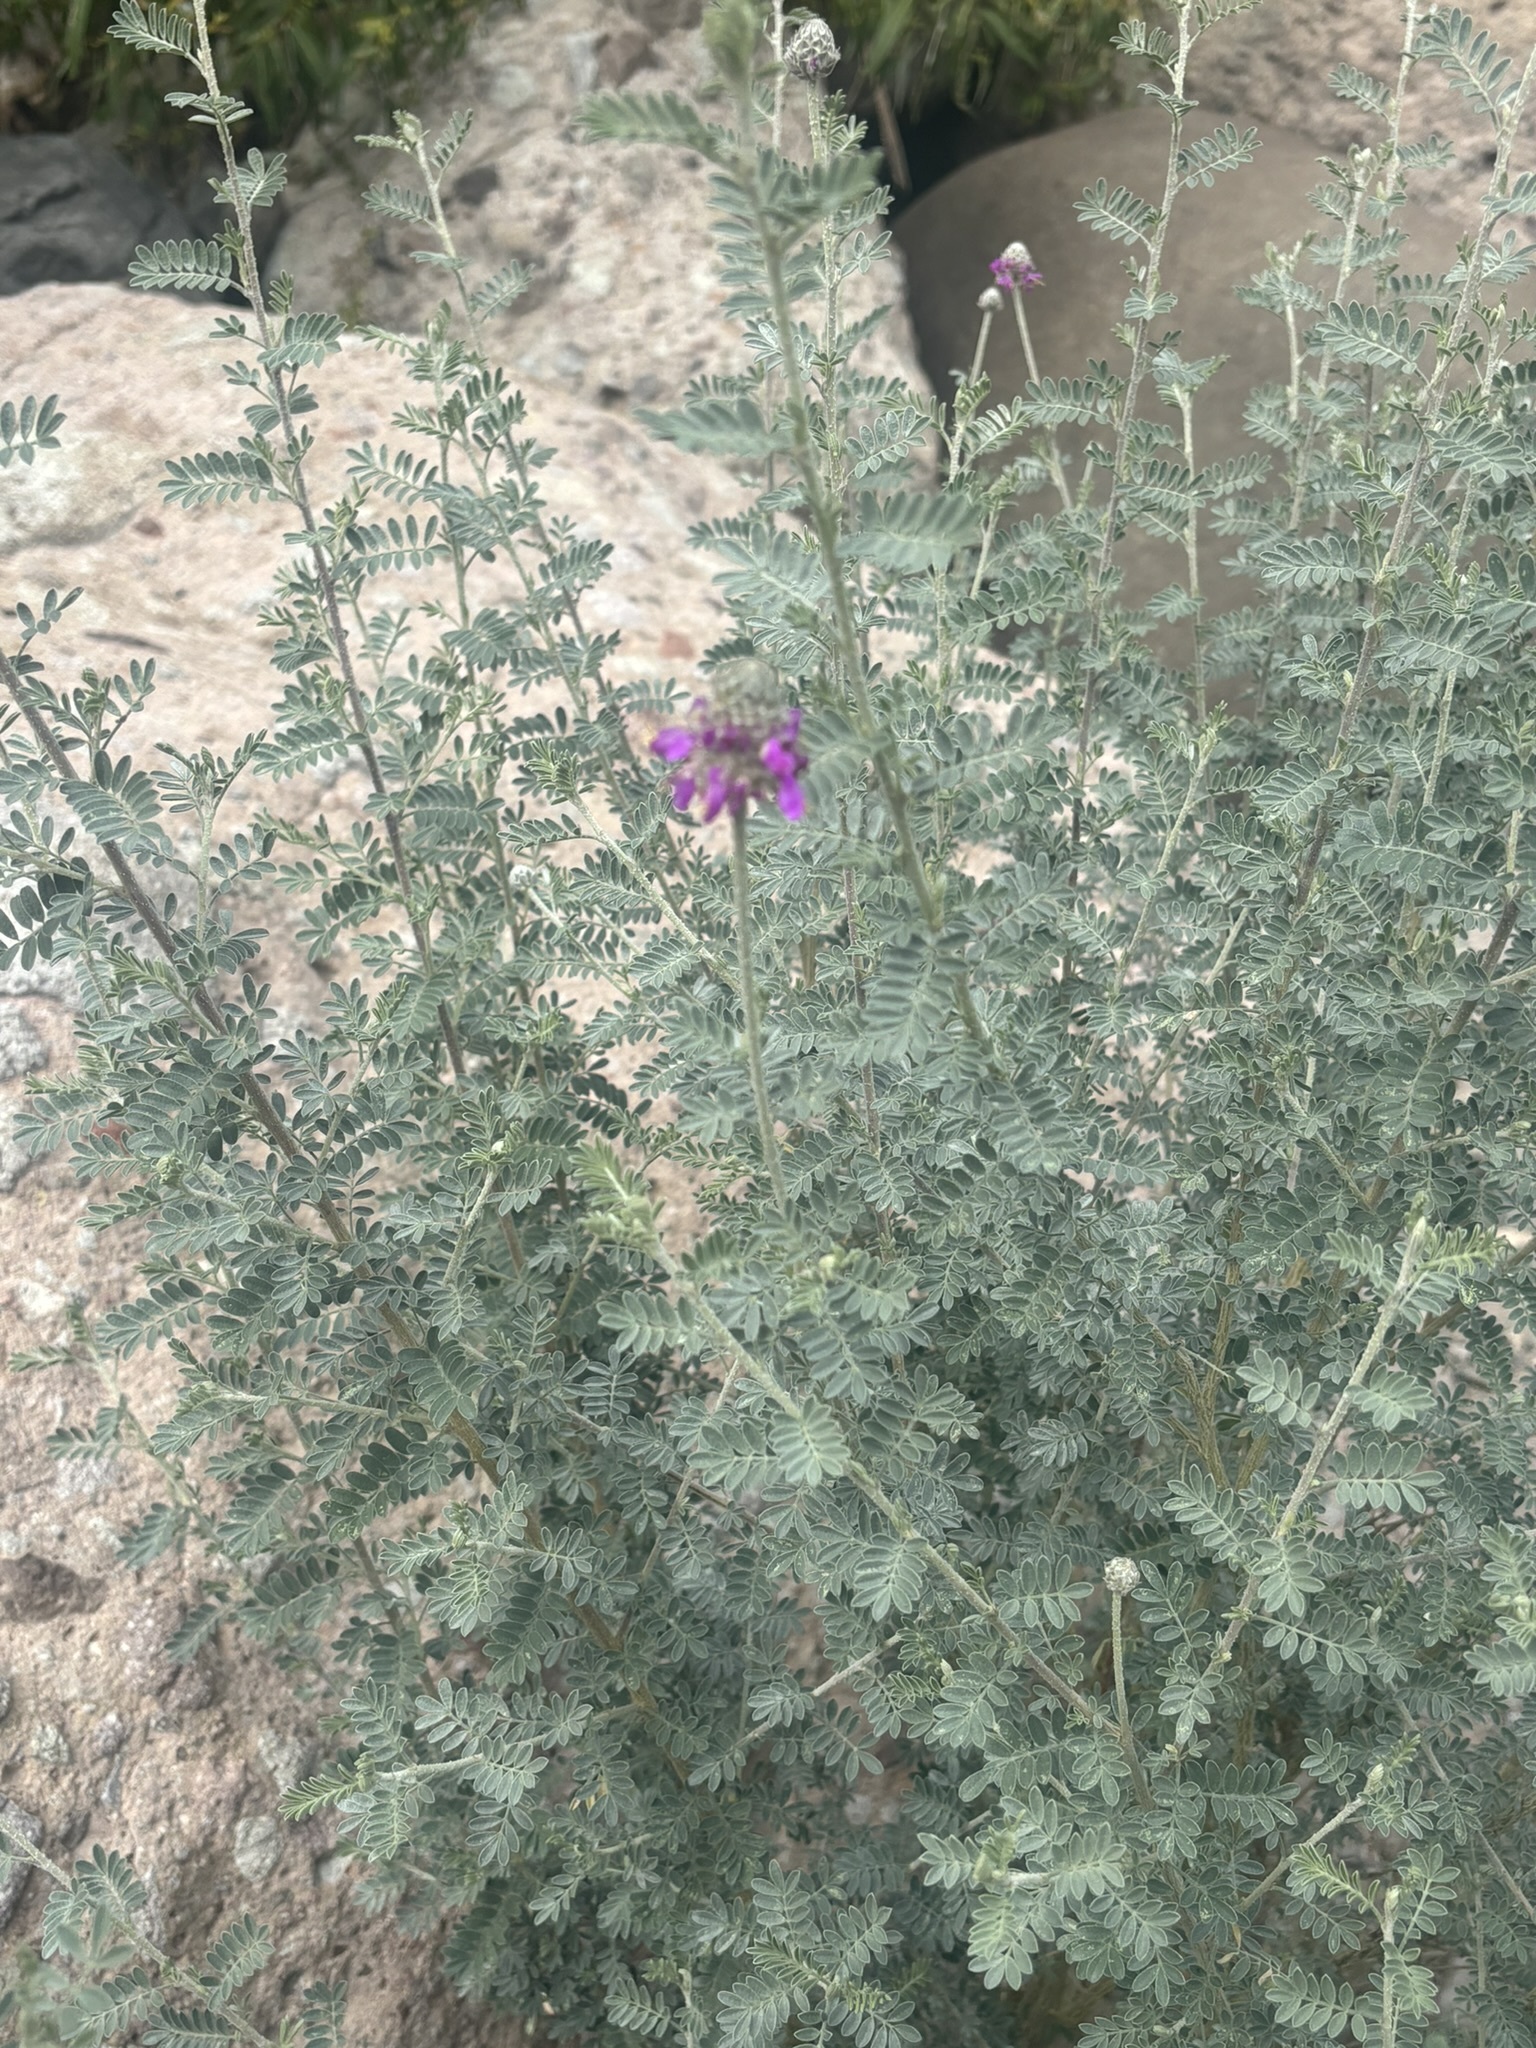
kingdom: Plantae
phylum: Tracheophyta
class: Magnoliopsida
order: Fabales
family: Fabaceae
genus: Dalea
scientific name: Dalea bicolor
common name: Silver prairie-clover
